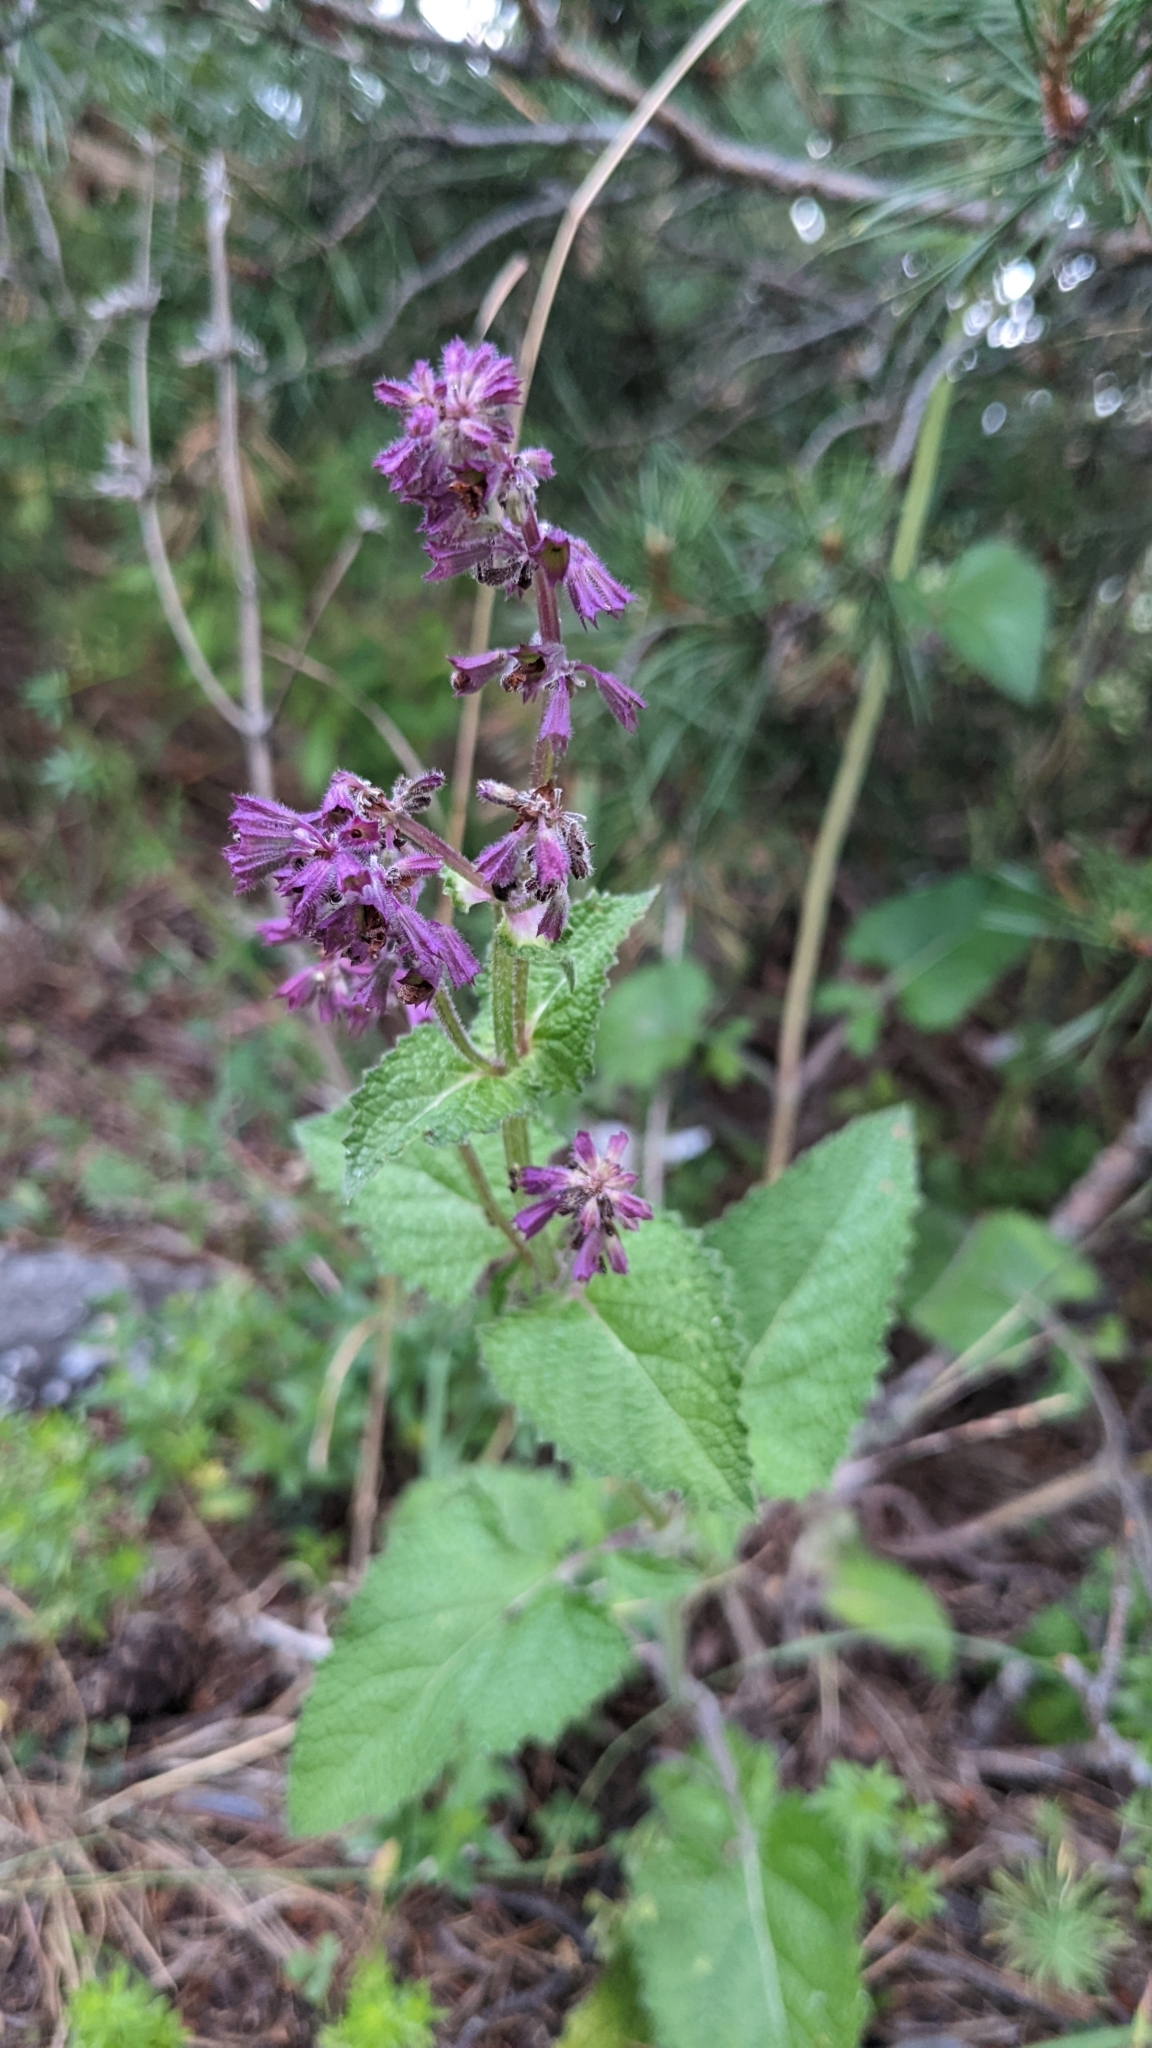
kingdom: Plantae
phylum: Tracheophyta
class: Magnoliopsida
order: Lamiales
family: Lamiaceae
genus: Salvia
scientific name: Salvia verticillata
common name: Whorled clary
